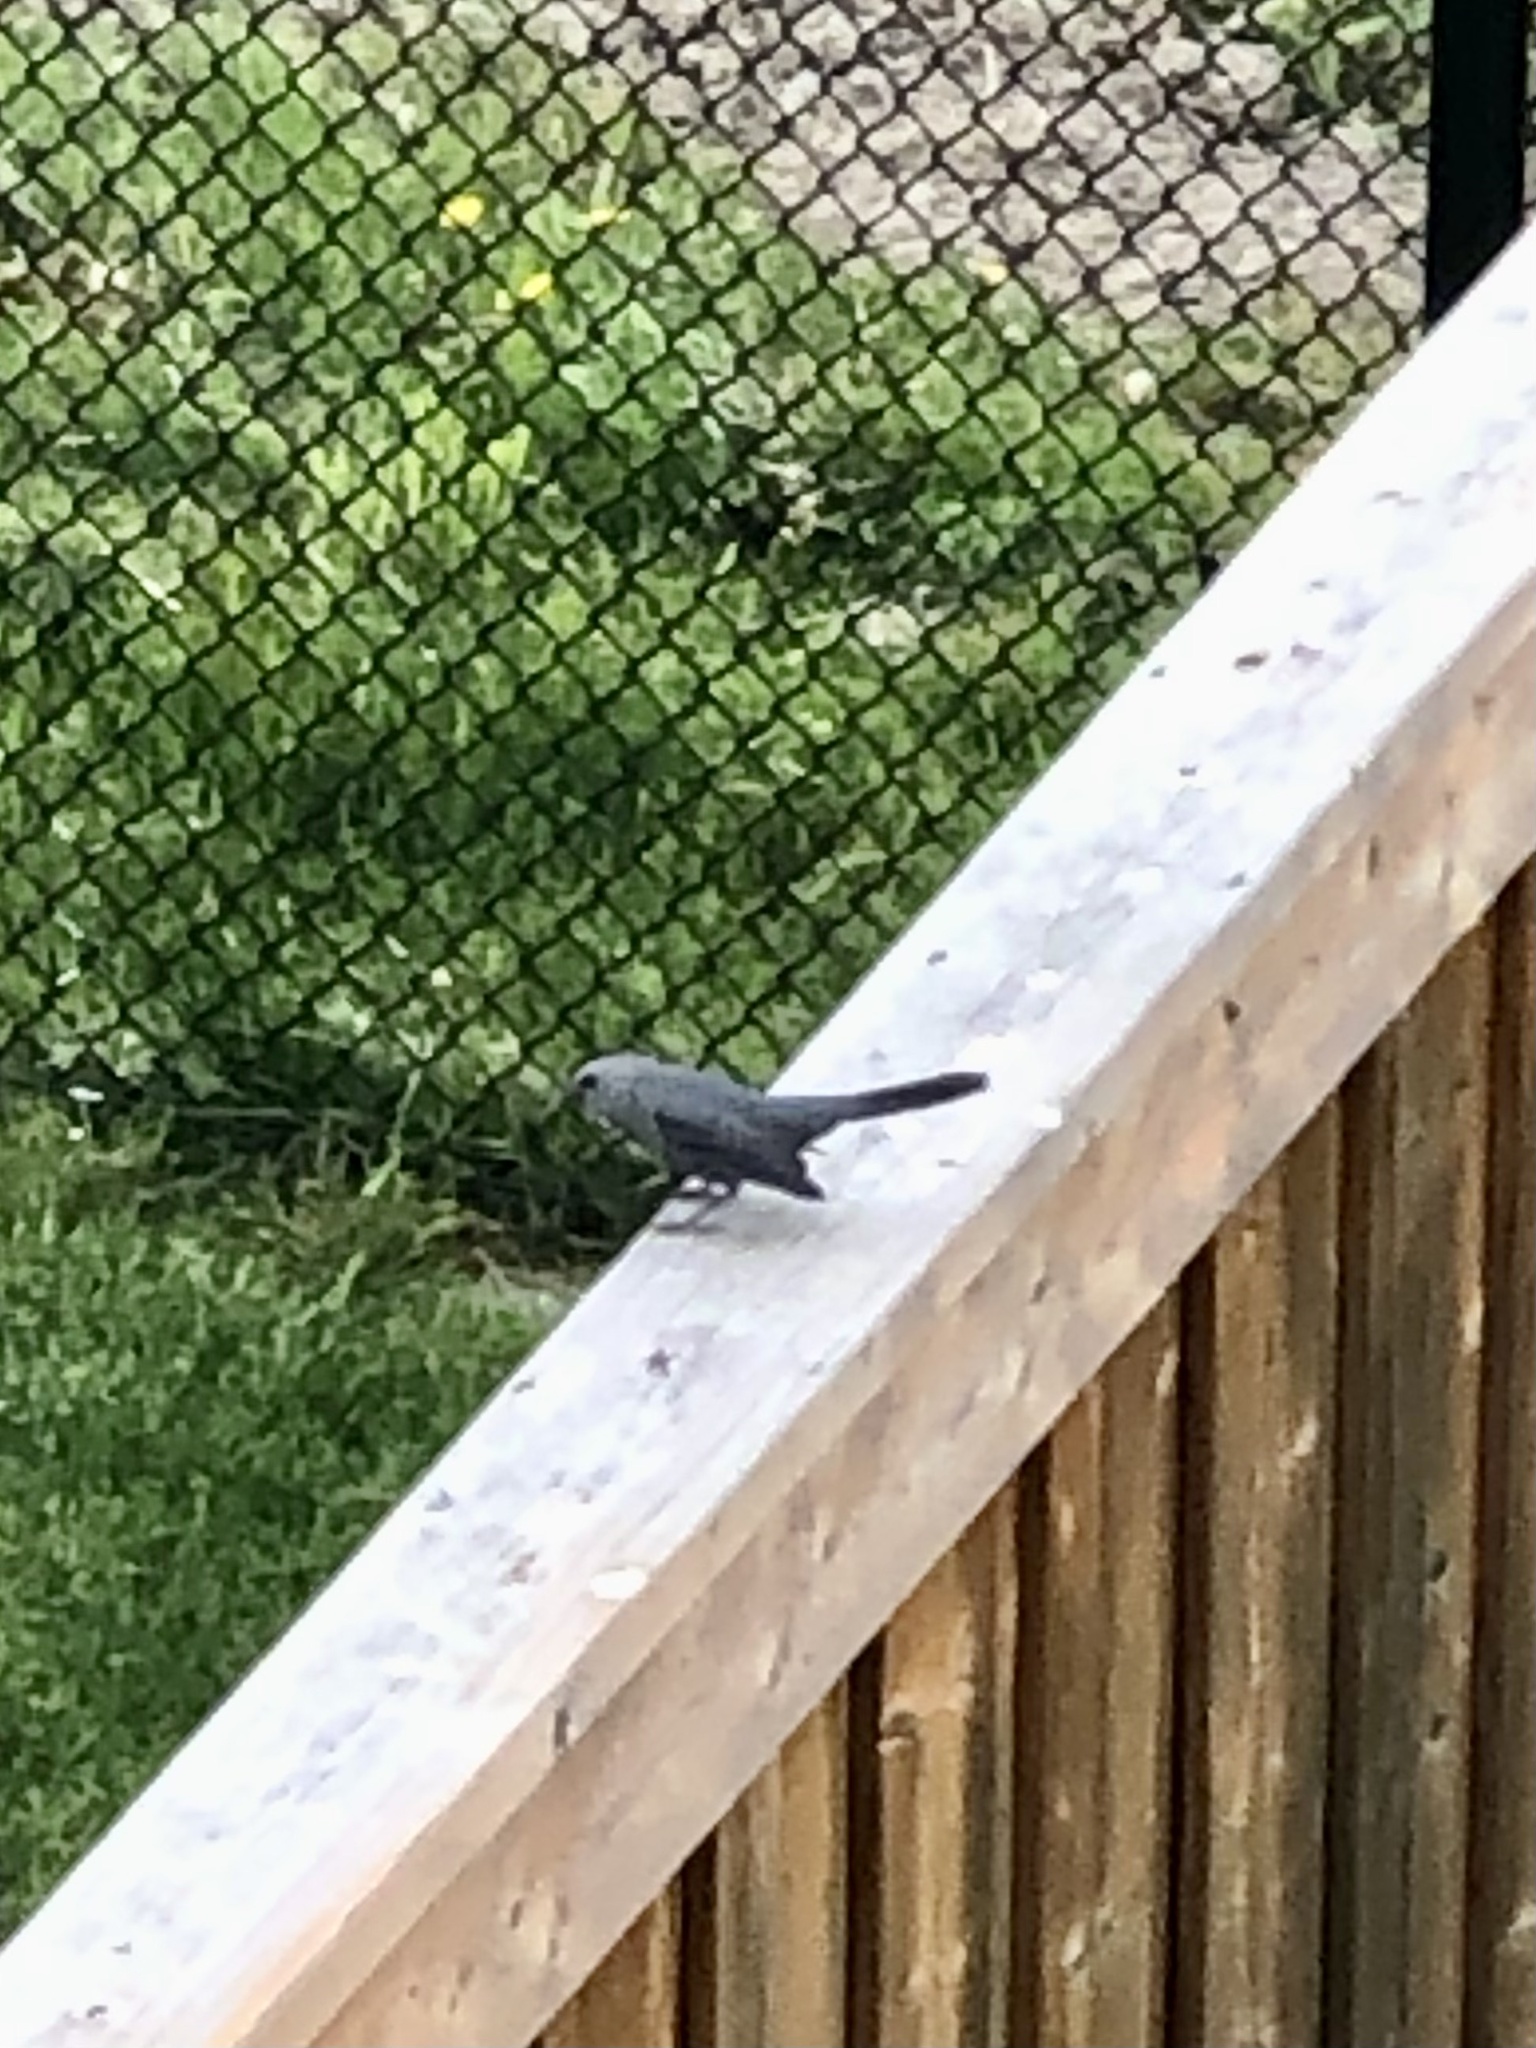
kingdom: Animalia
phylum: Chordata
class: Aves
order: Passeriformes
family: Mimidae
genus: Dumetella
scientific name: Dumetella carolinensis
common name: Gray catbird
